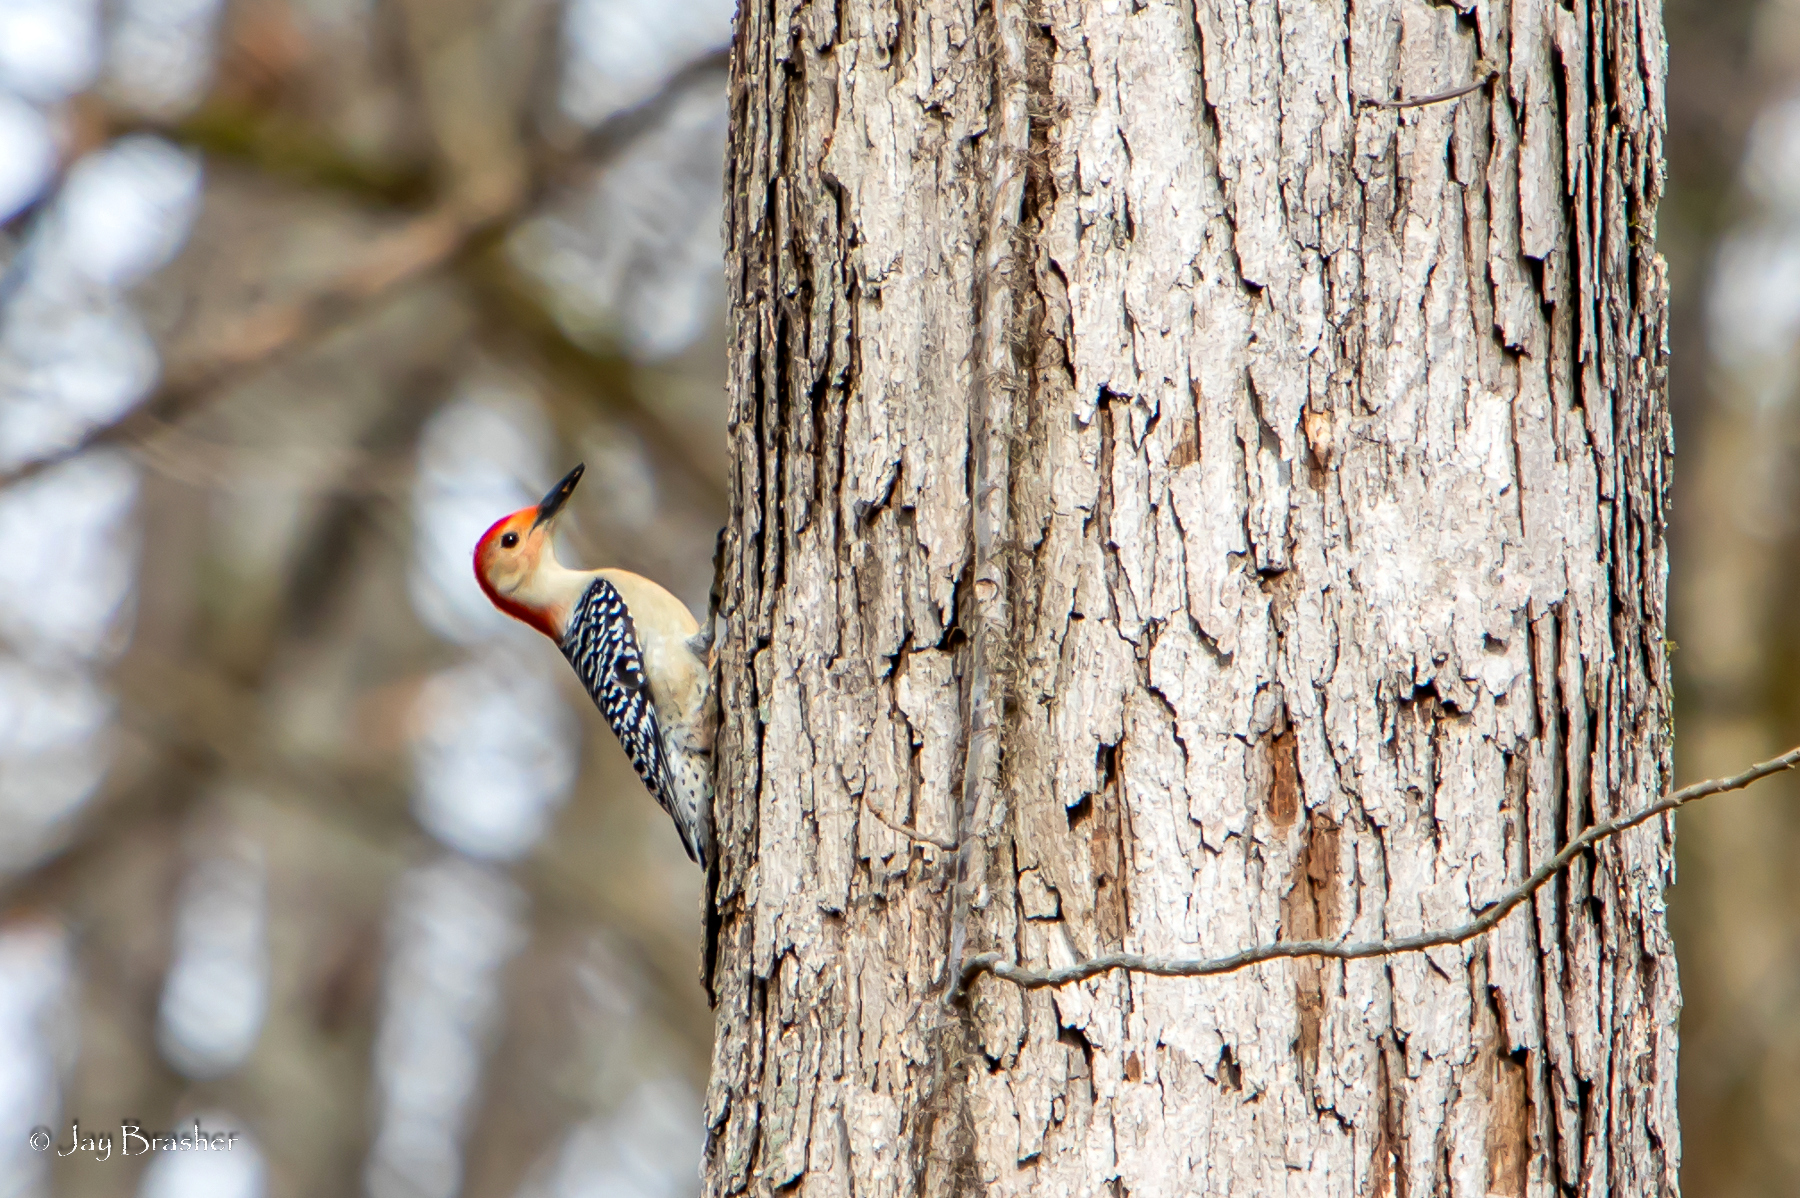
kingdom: Animalia
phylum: Chordata
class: Aves
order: Piciformes
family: Picidae
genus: Melanerpes
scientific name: Melanerpes carolinus
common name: Red-bellied woodpecker
